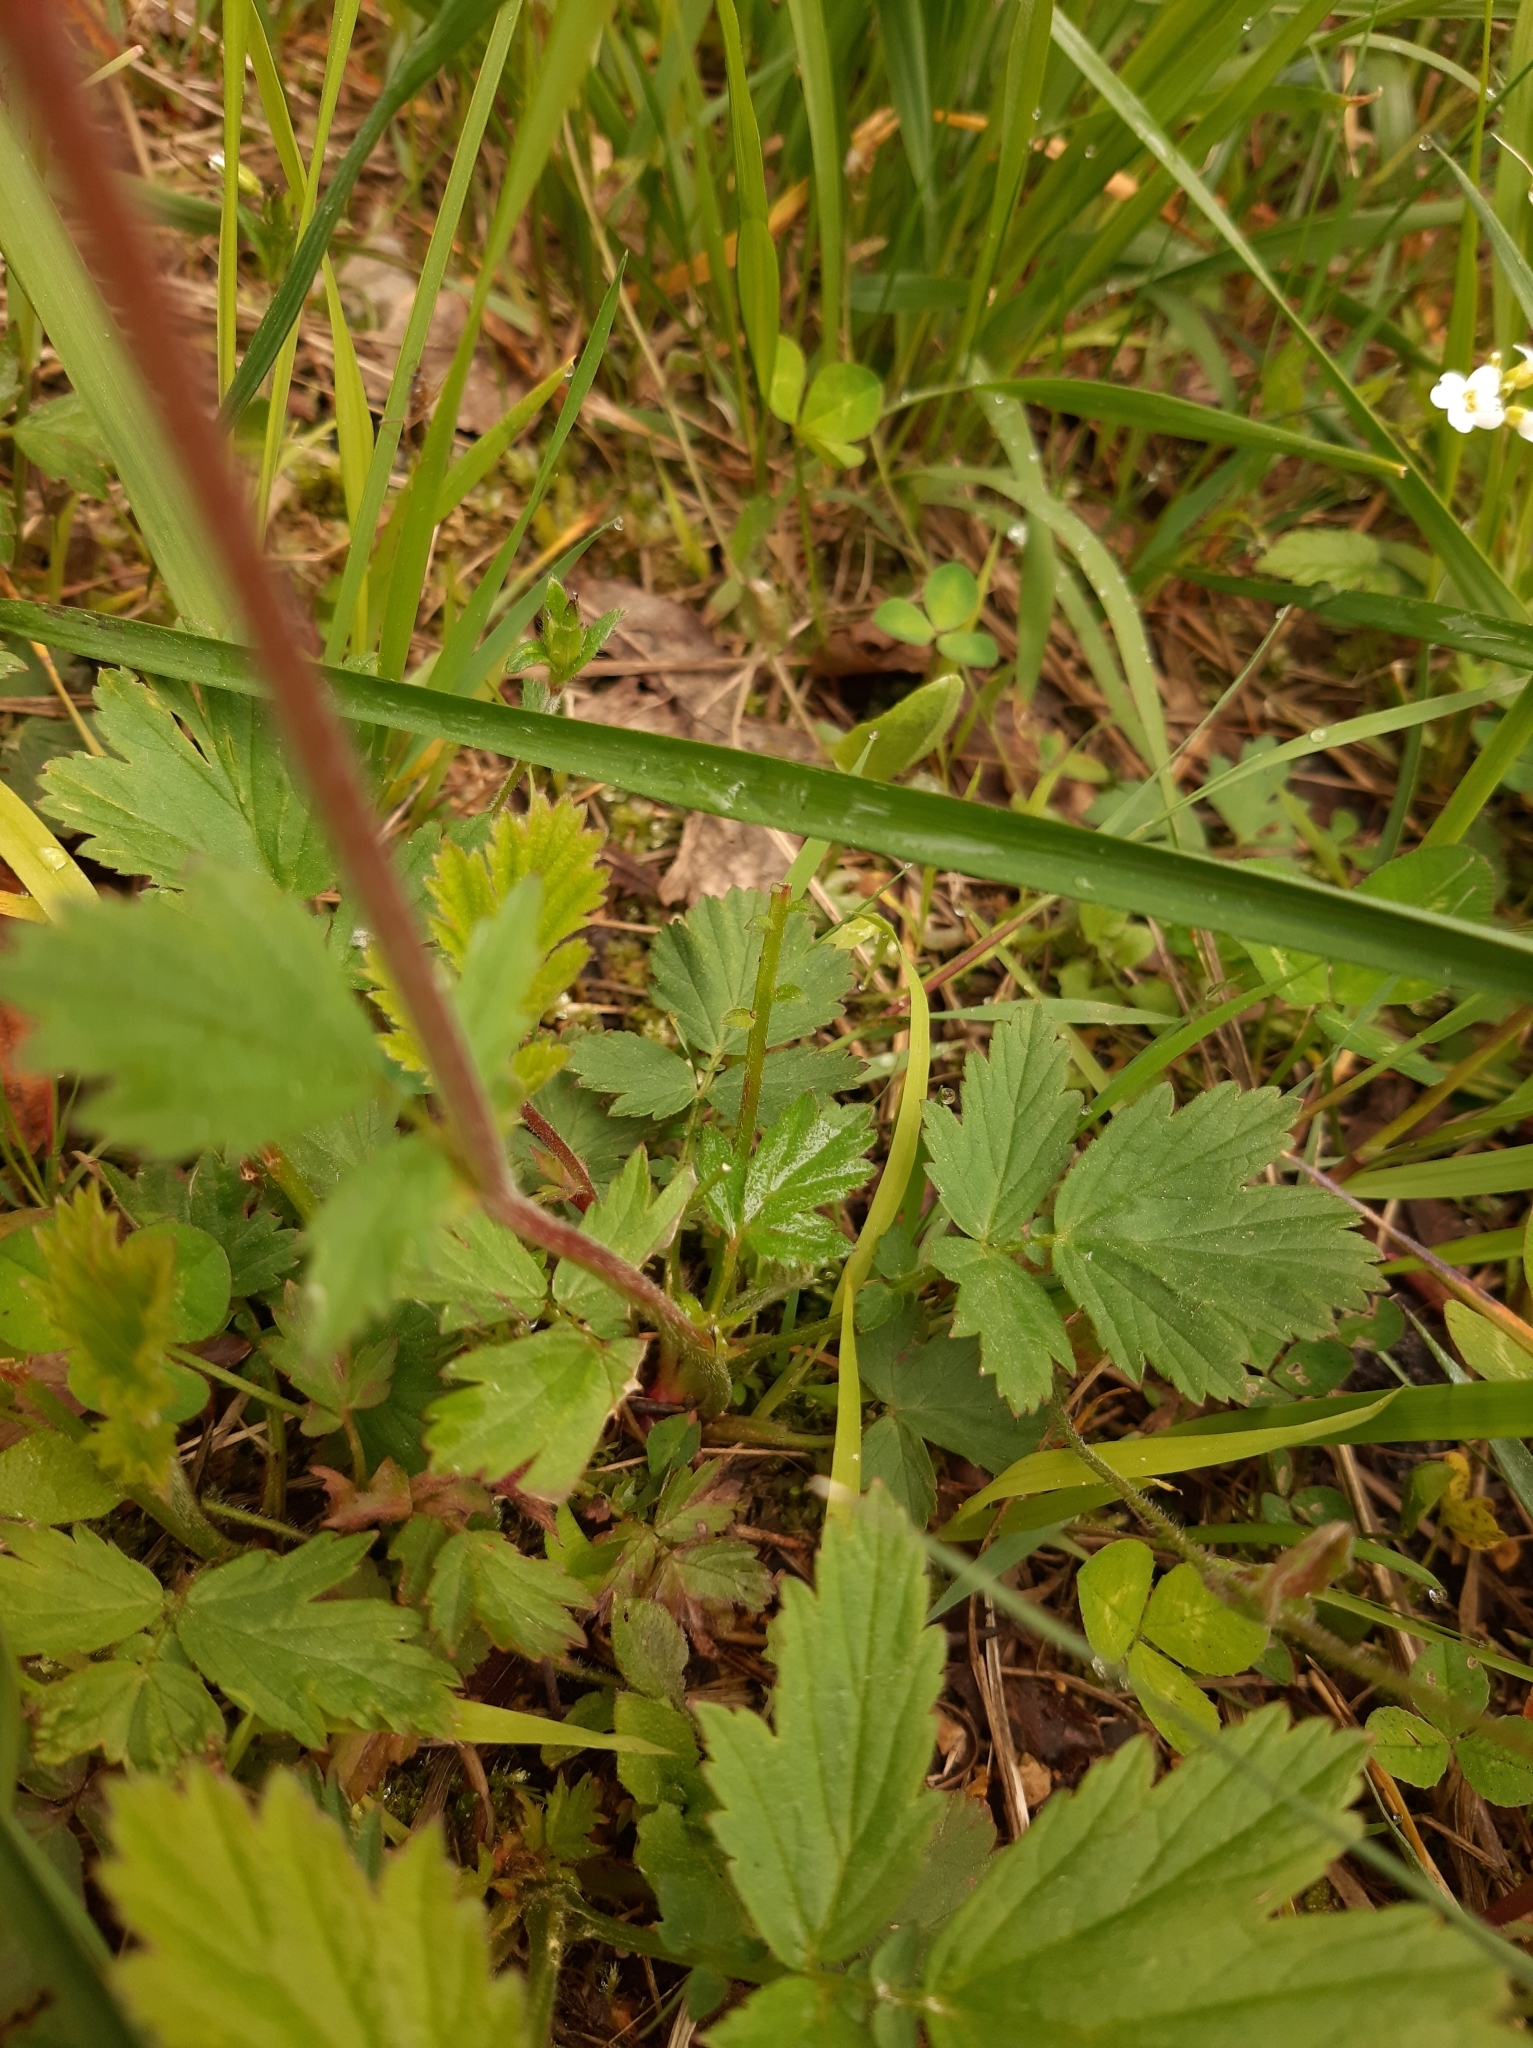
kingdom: Plantae
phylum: Tracheophyta
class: Magnoliopsida
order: Rosales
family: Rosaceae
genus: Geum
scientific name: Geum rivale
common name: Water avens
